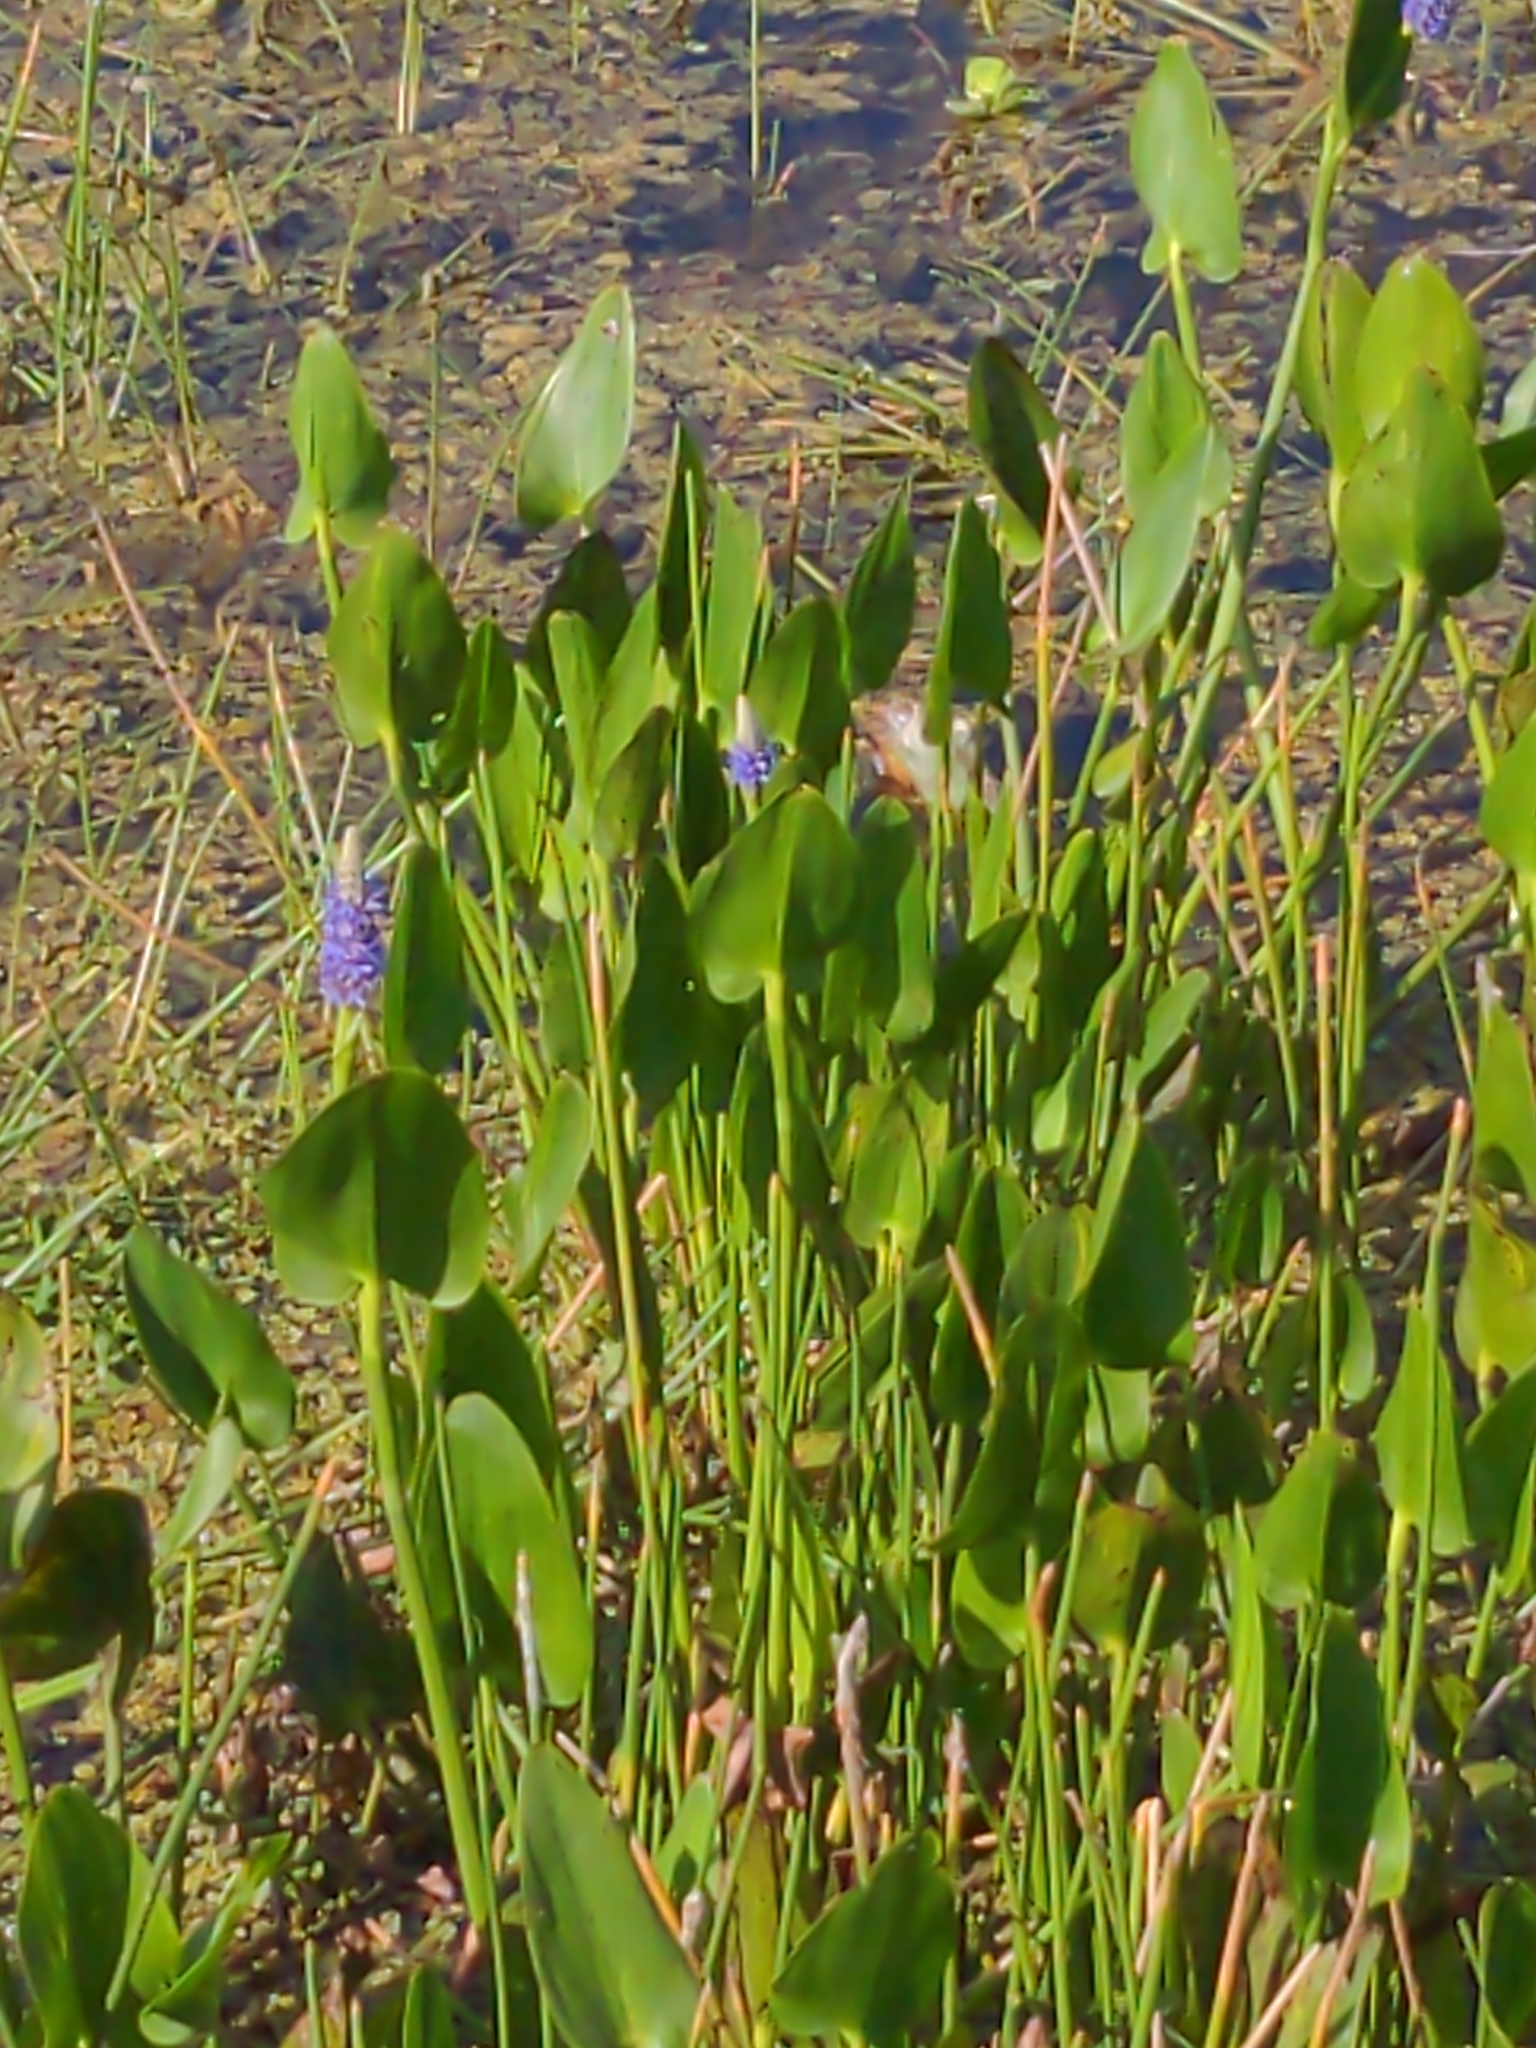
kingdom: Plantae
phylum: Tracheophyta
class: Liliopsida
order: Commelinales
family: Pontederiaceae
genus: Pontederia
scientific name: Pontederia cordata
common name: Pickerelweed
